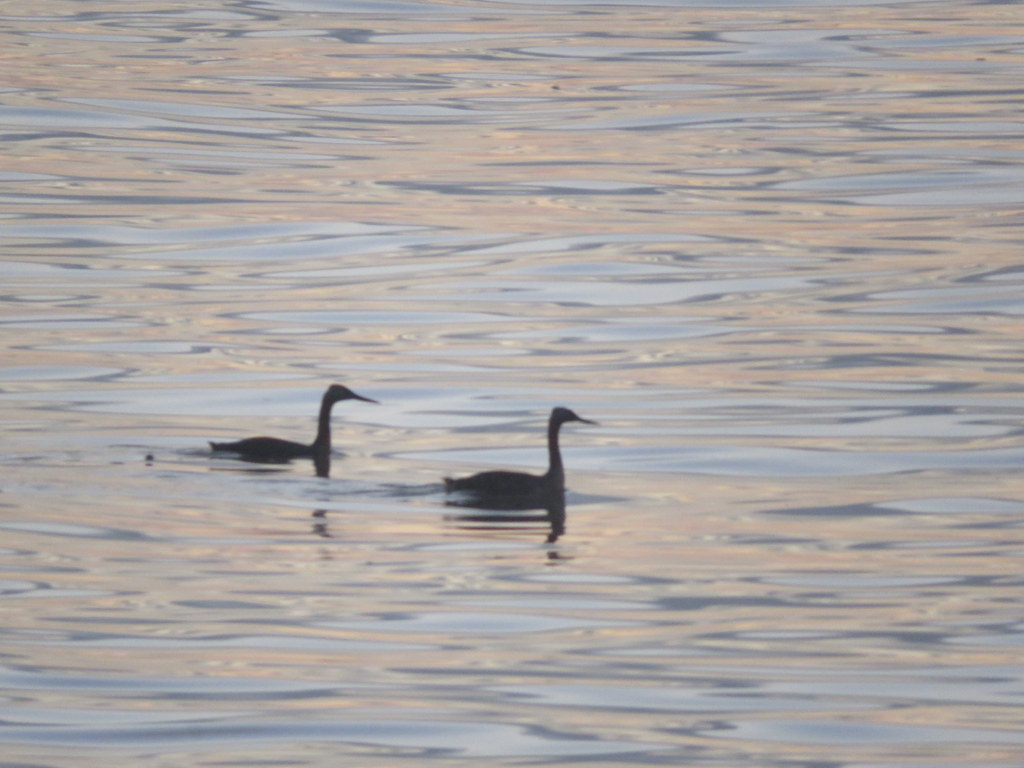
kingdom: Animalia
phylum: Chordata
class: Aves
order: Podicipediformes
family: Podicipedidae
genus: Podiceps
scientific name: Podiceps major
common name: Great grebe
